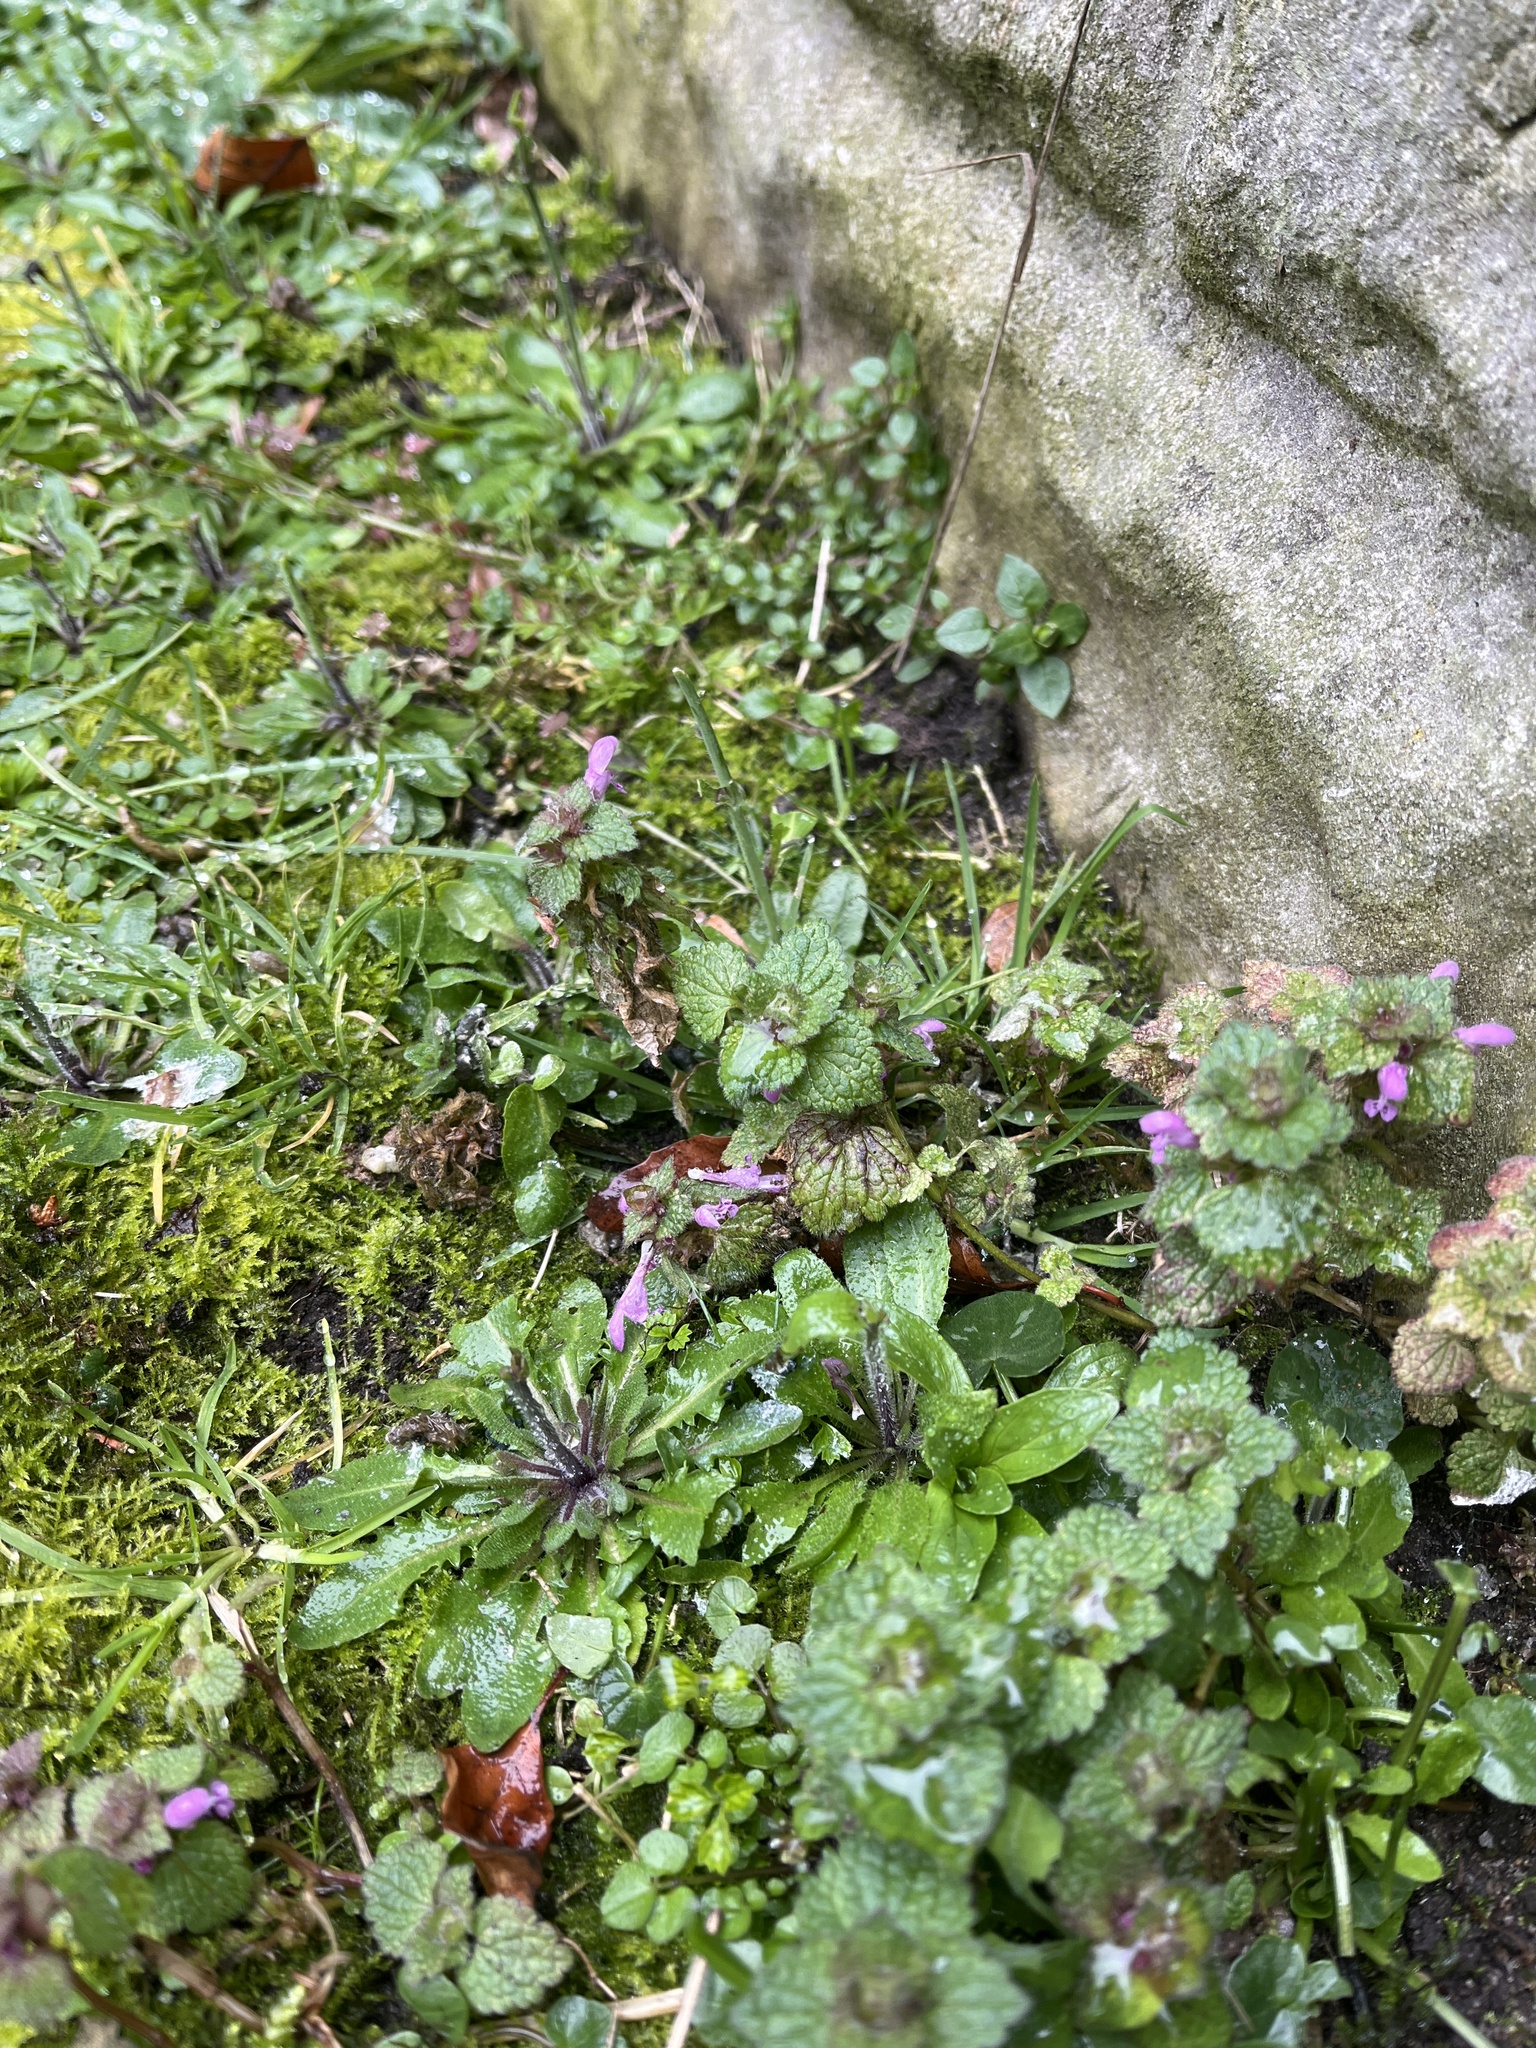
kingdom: Plantae
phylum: Tracheophyta
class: Magnoliopsida
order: Lamiales
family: Lamiaceae
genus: Lamium
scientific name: Lamium purpureum
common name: Red dead-nettle
